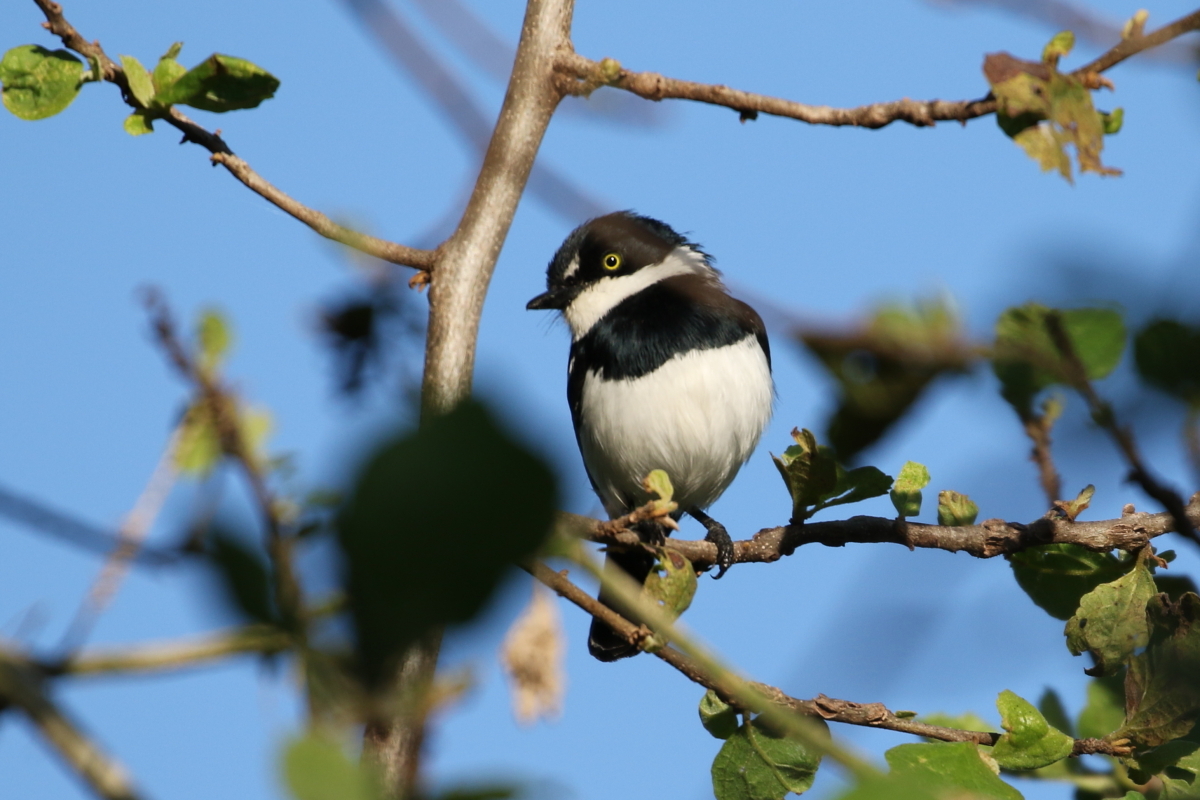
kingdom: Animalia
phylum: Chordata
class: Aves
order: Passeriformes
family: Platysteiridae
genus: Batis
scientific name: Batis molitor
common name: Chinspot batis
